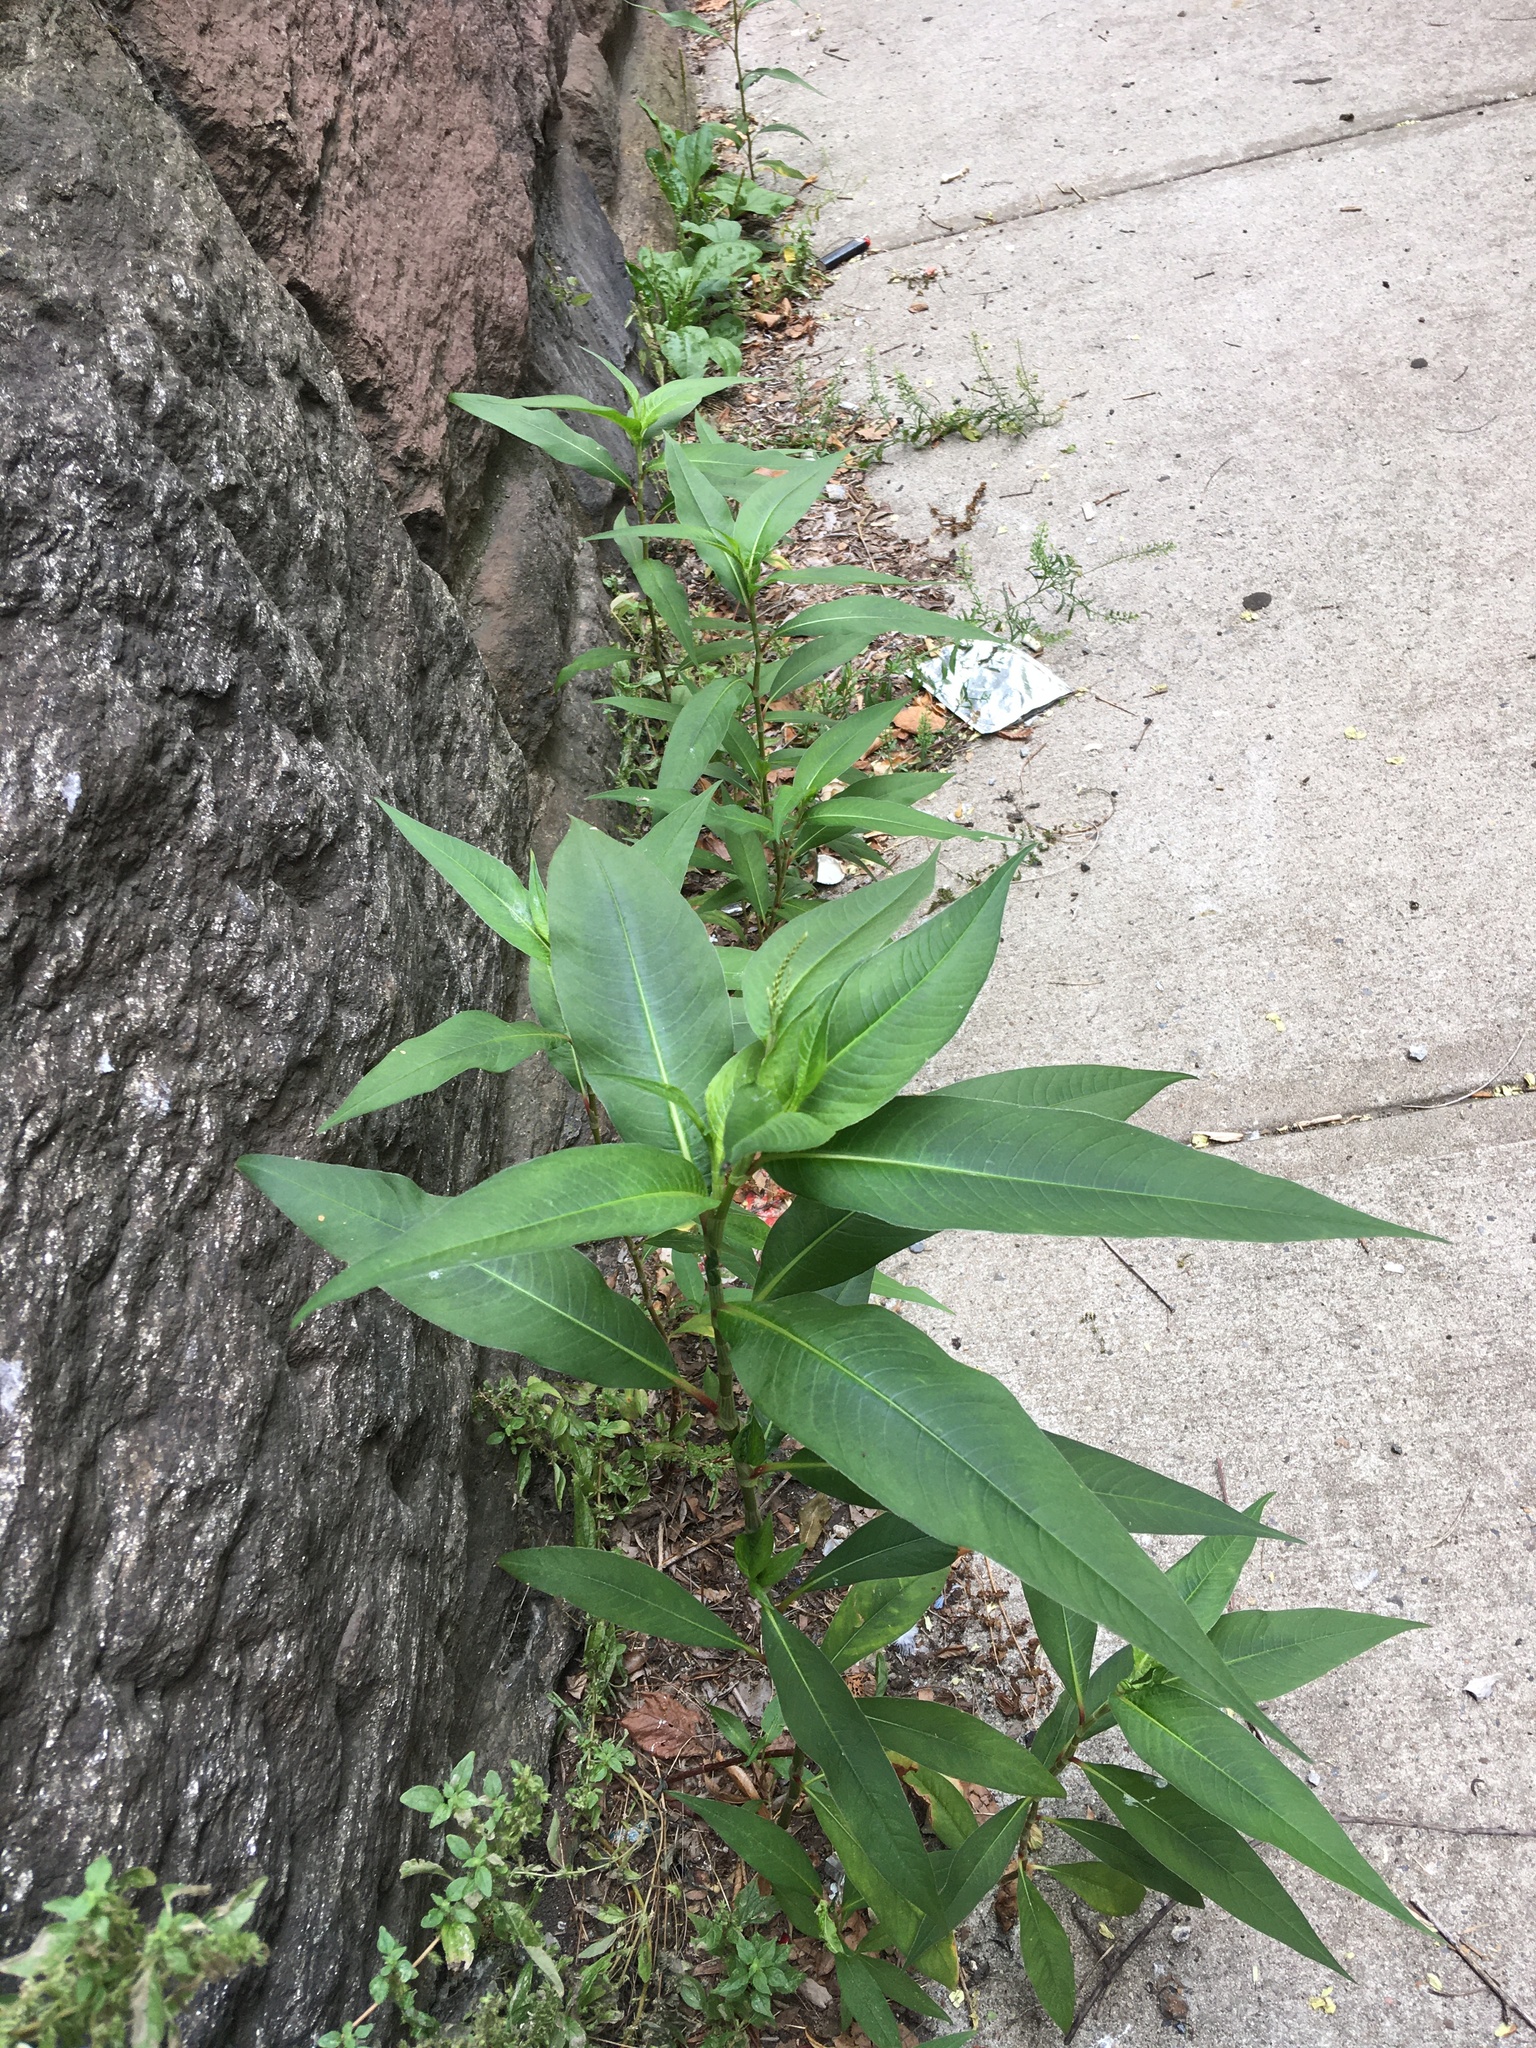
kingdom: Plantae
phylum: Tracheophyta
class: Magnoliopsida
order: Caryophyllales
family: Polygonaceae
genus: Persicaria
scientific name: Persicaria extremiorientalis
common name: Far-eastern smartweed
